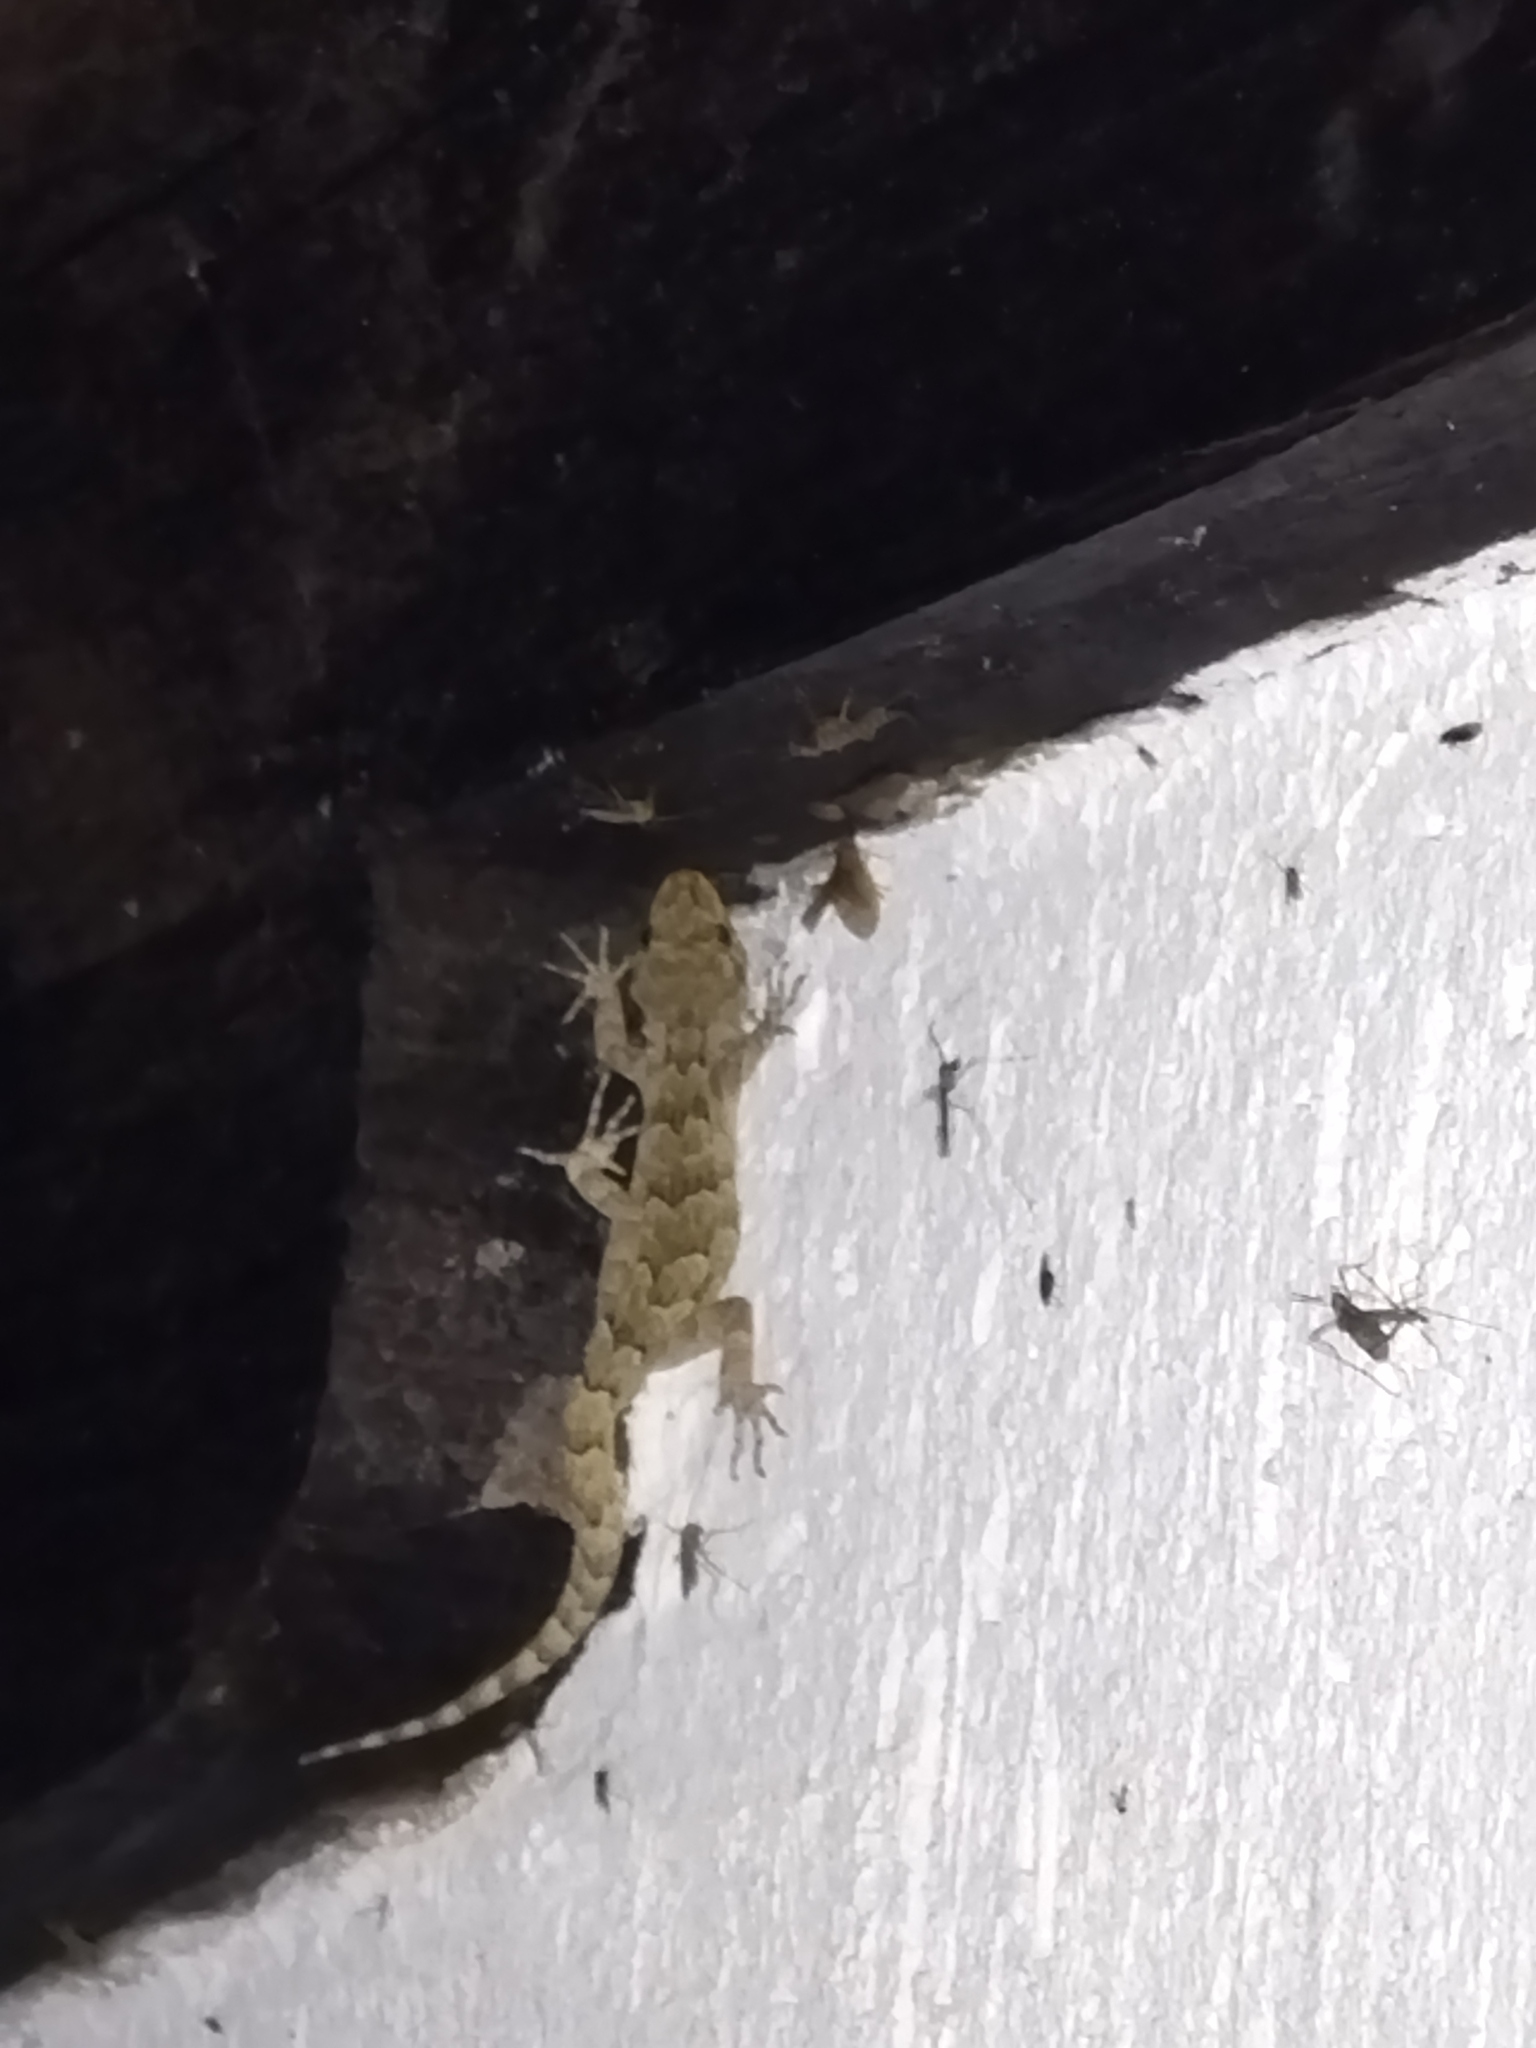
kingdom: Animalia
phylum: Chordata
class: Squamata
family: Gekkonidae
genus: Mediodactylus
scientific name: Mediodactylus kotschyi
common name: Kotschy's gecko
